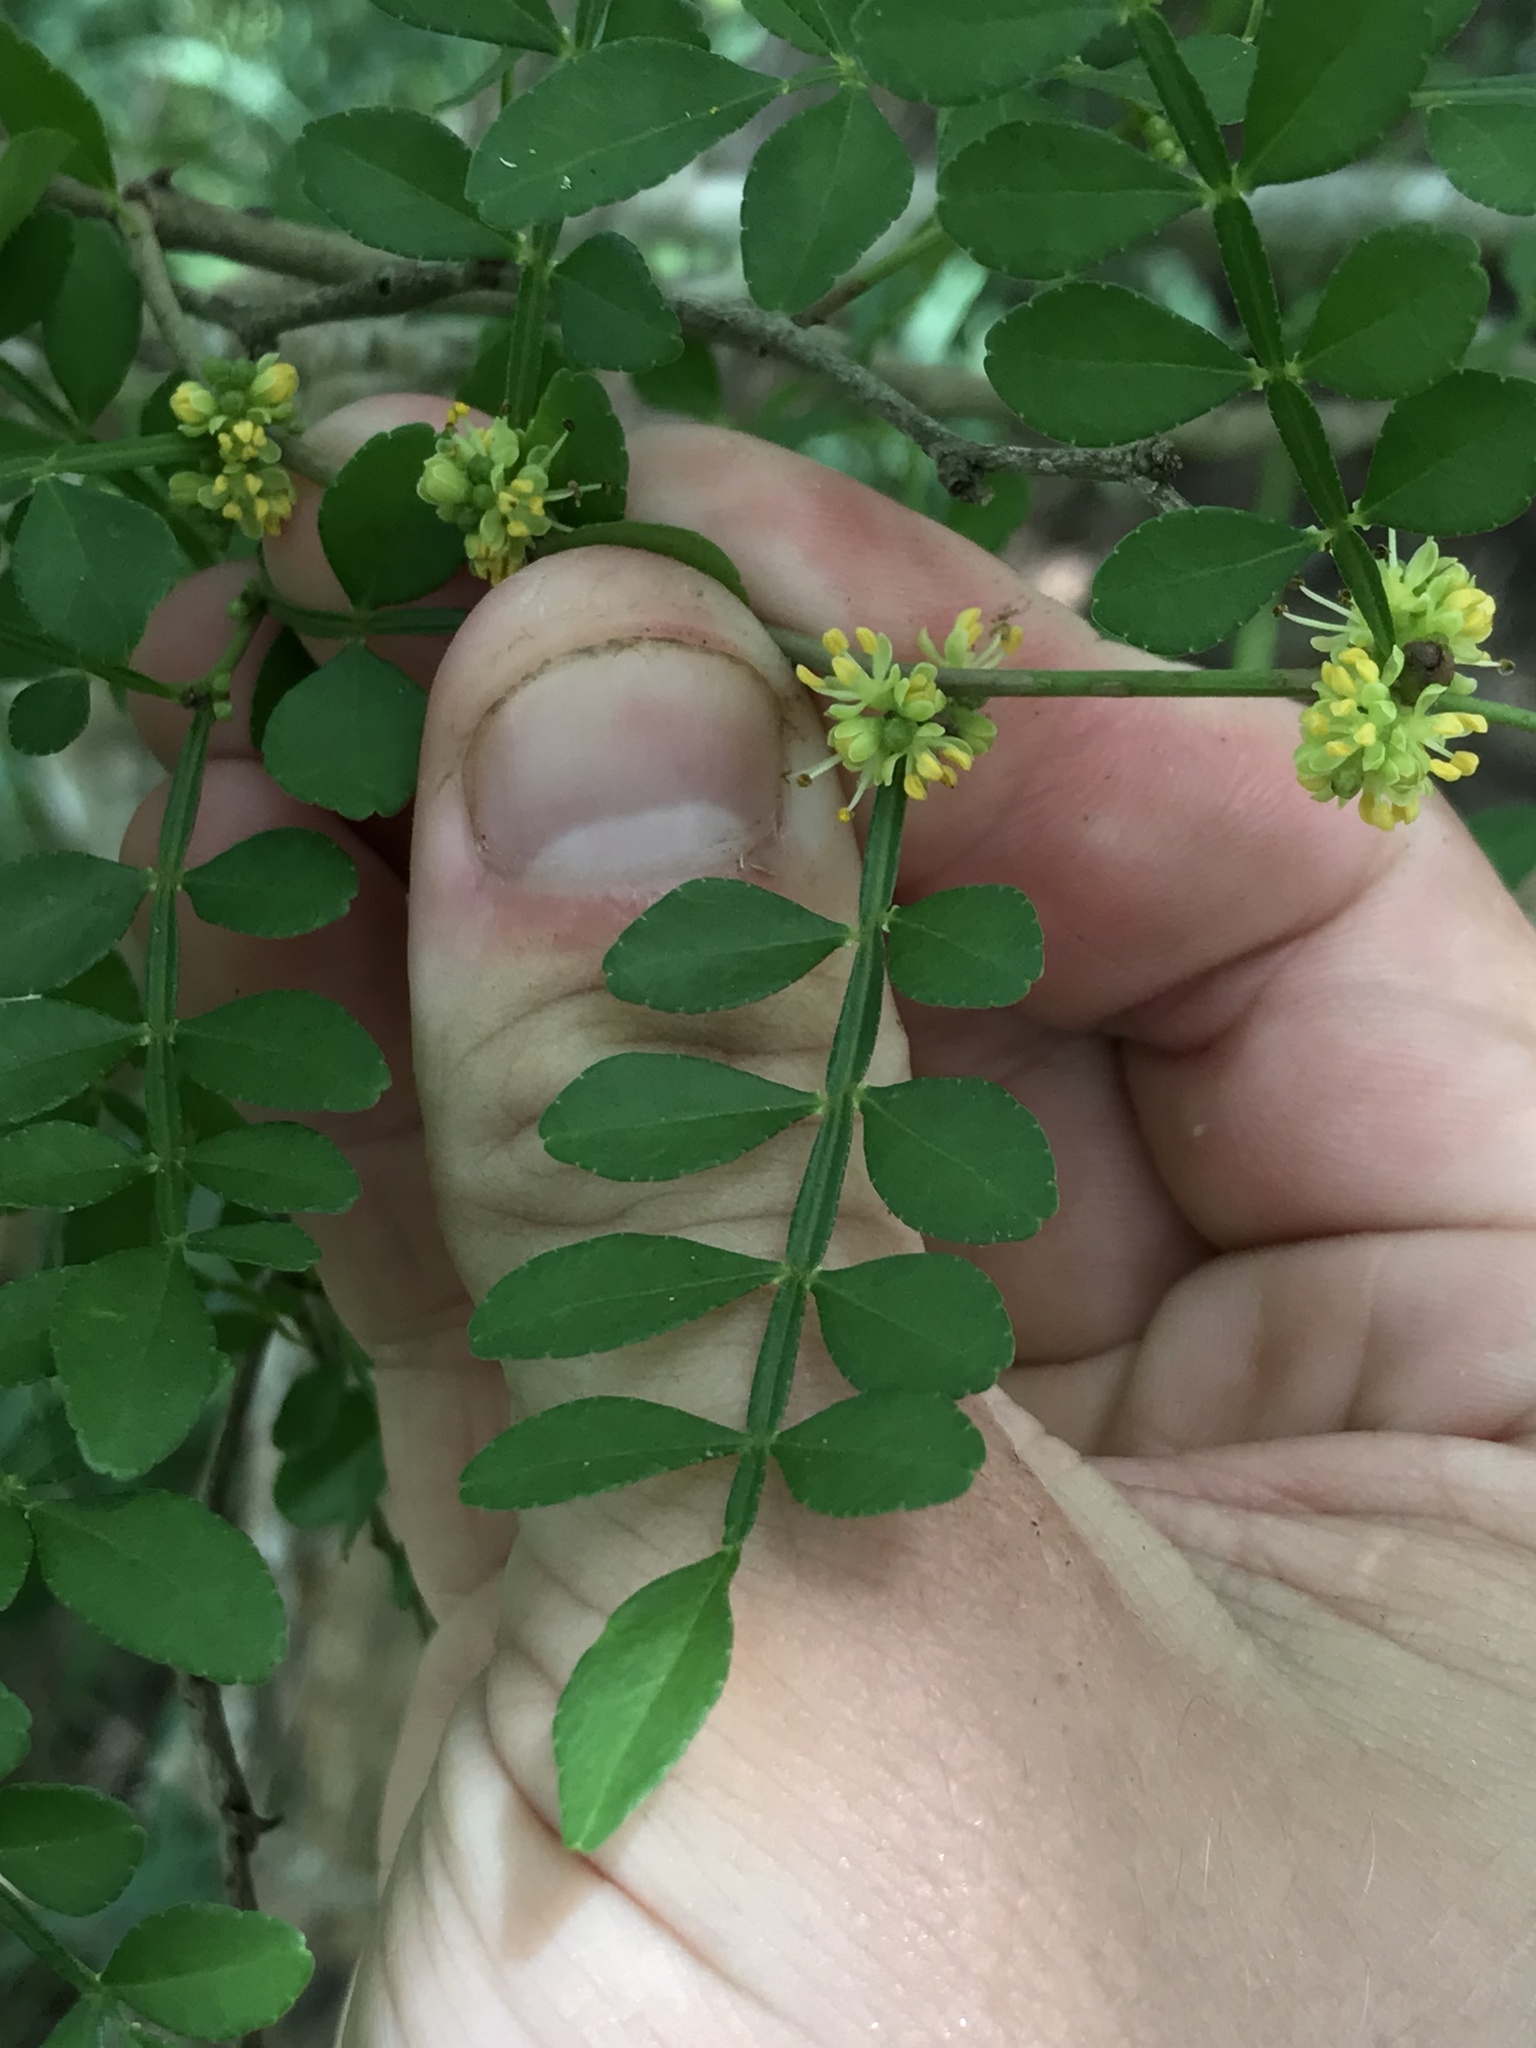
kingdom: Plantae
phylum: Tracheophyta
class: Magnoliopsida
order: Sapindales
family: Rutaceae
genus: Zanthoxylum
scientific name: Zanthoxylum fagara
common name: Lime prickly-ash
